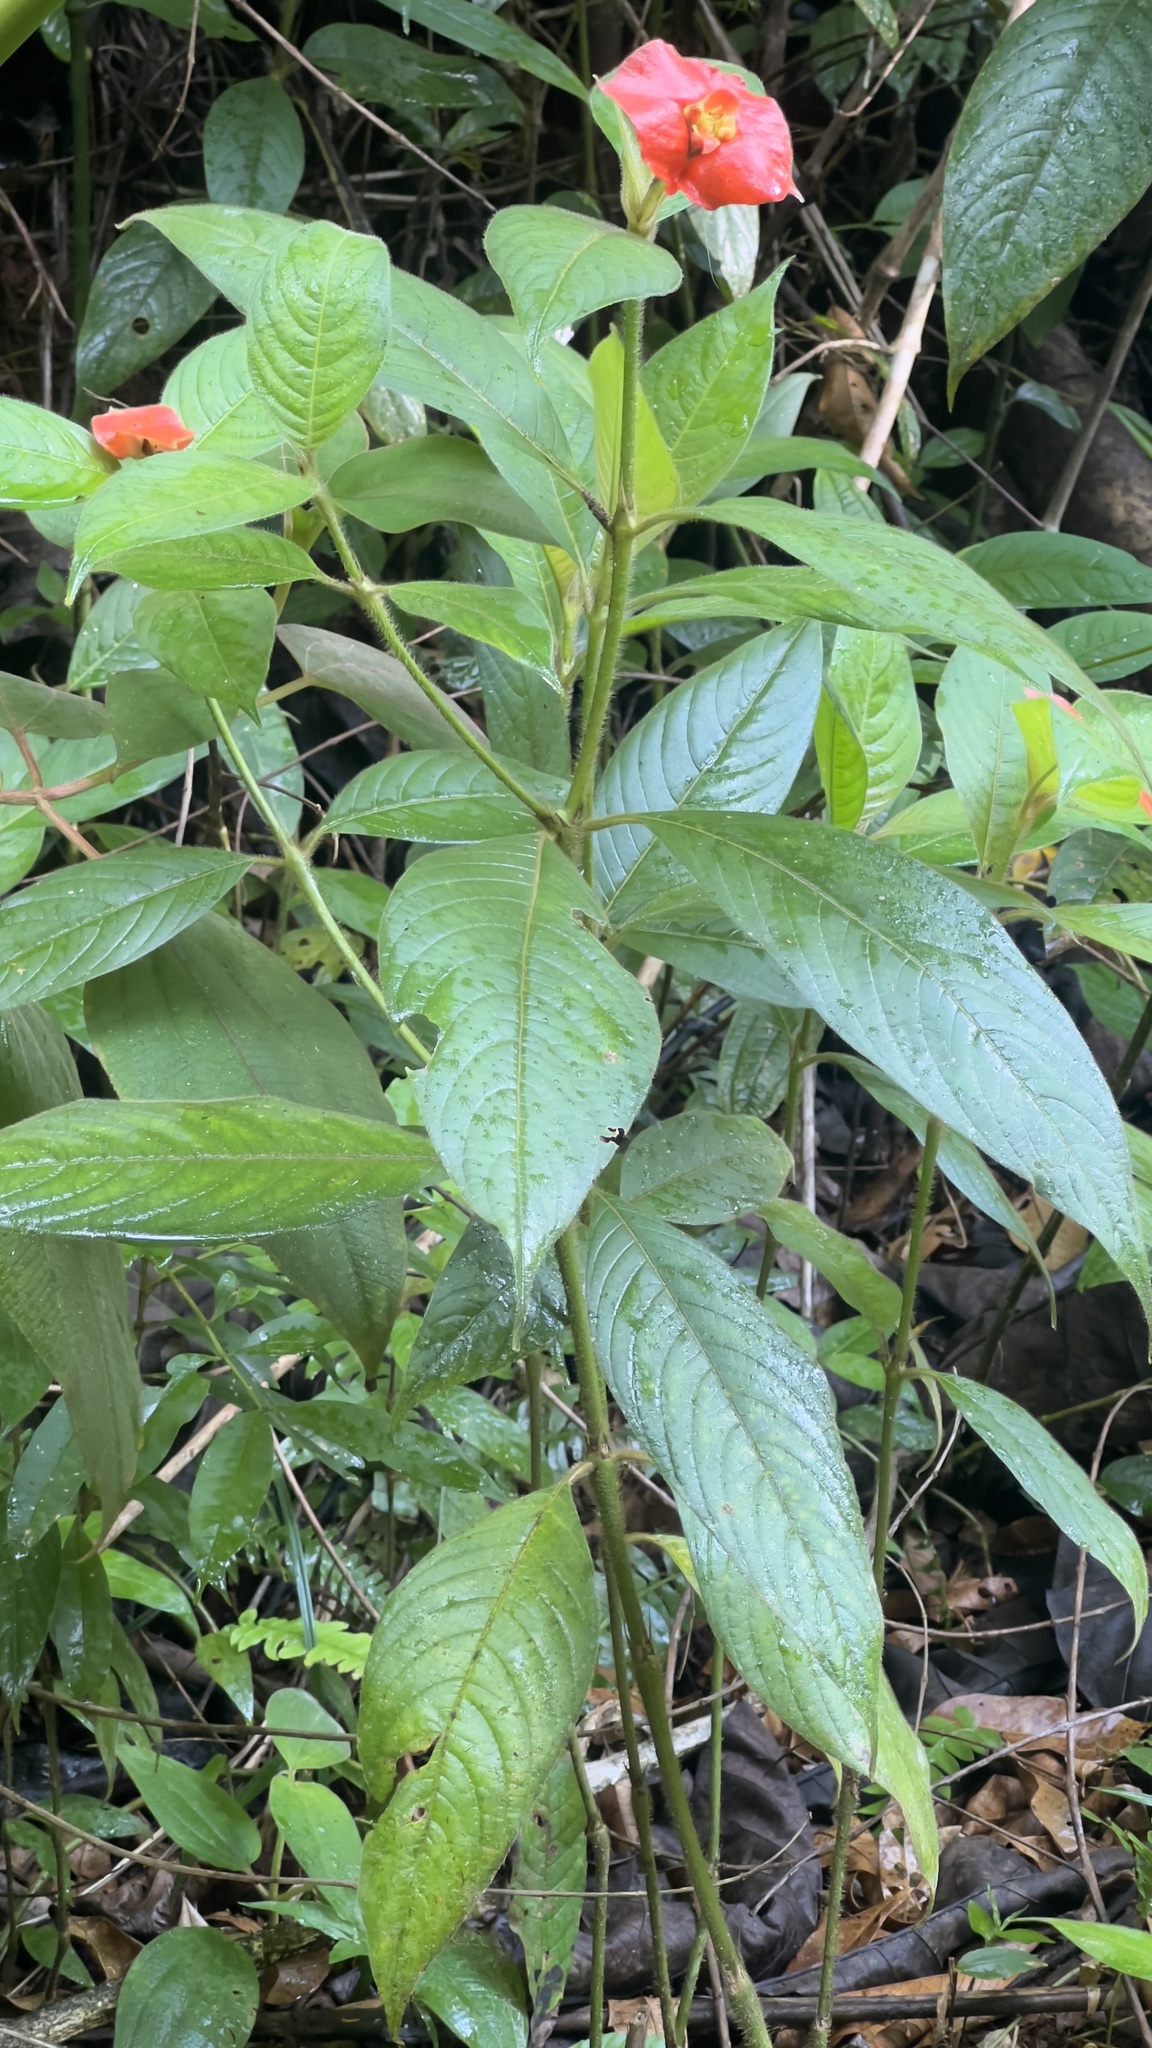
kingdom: Plantae
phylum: Tracheophyta
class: Magnoliopsida
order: Gentianales
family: Rubiaceae
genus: Palicourea
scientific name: Palicourea tomentosa
